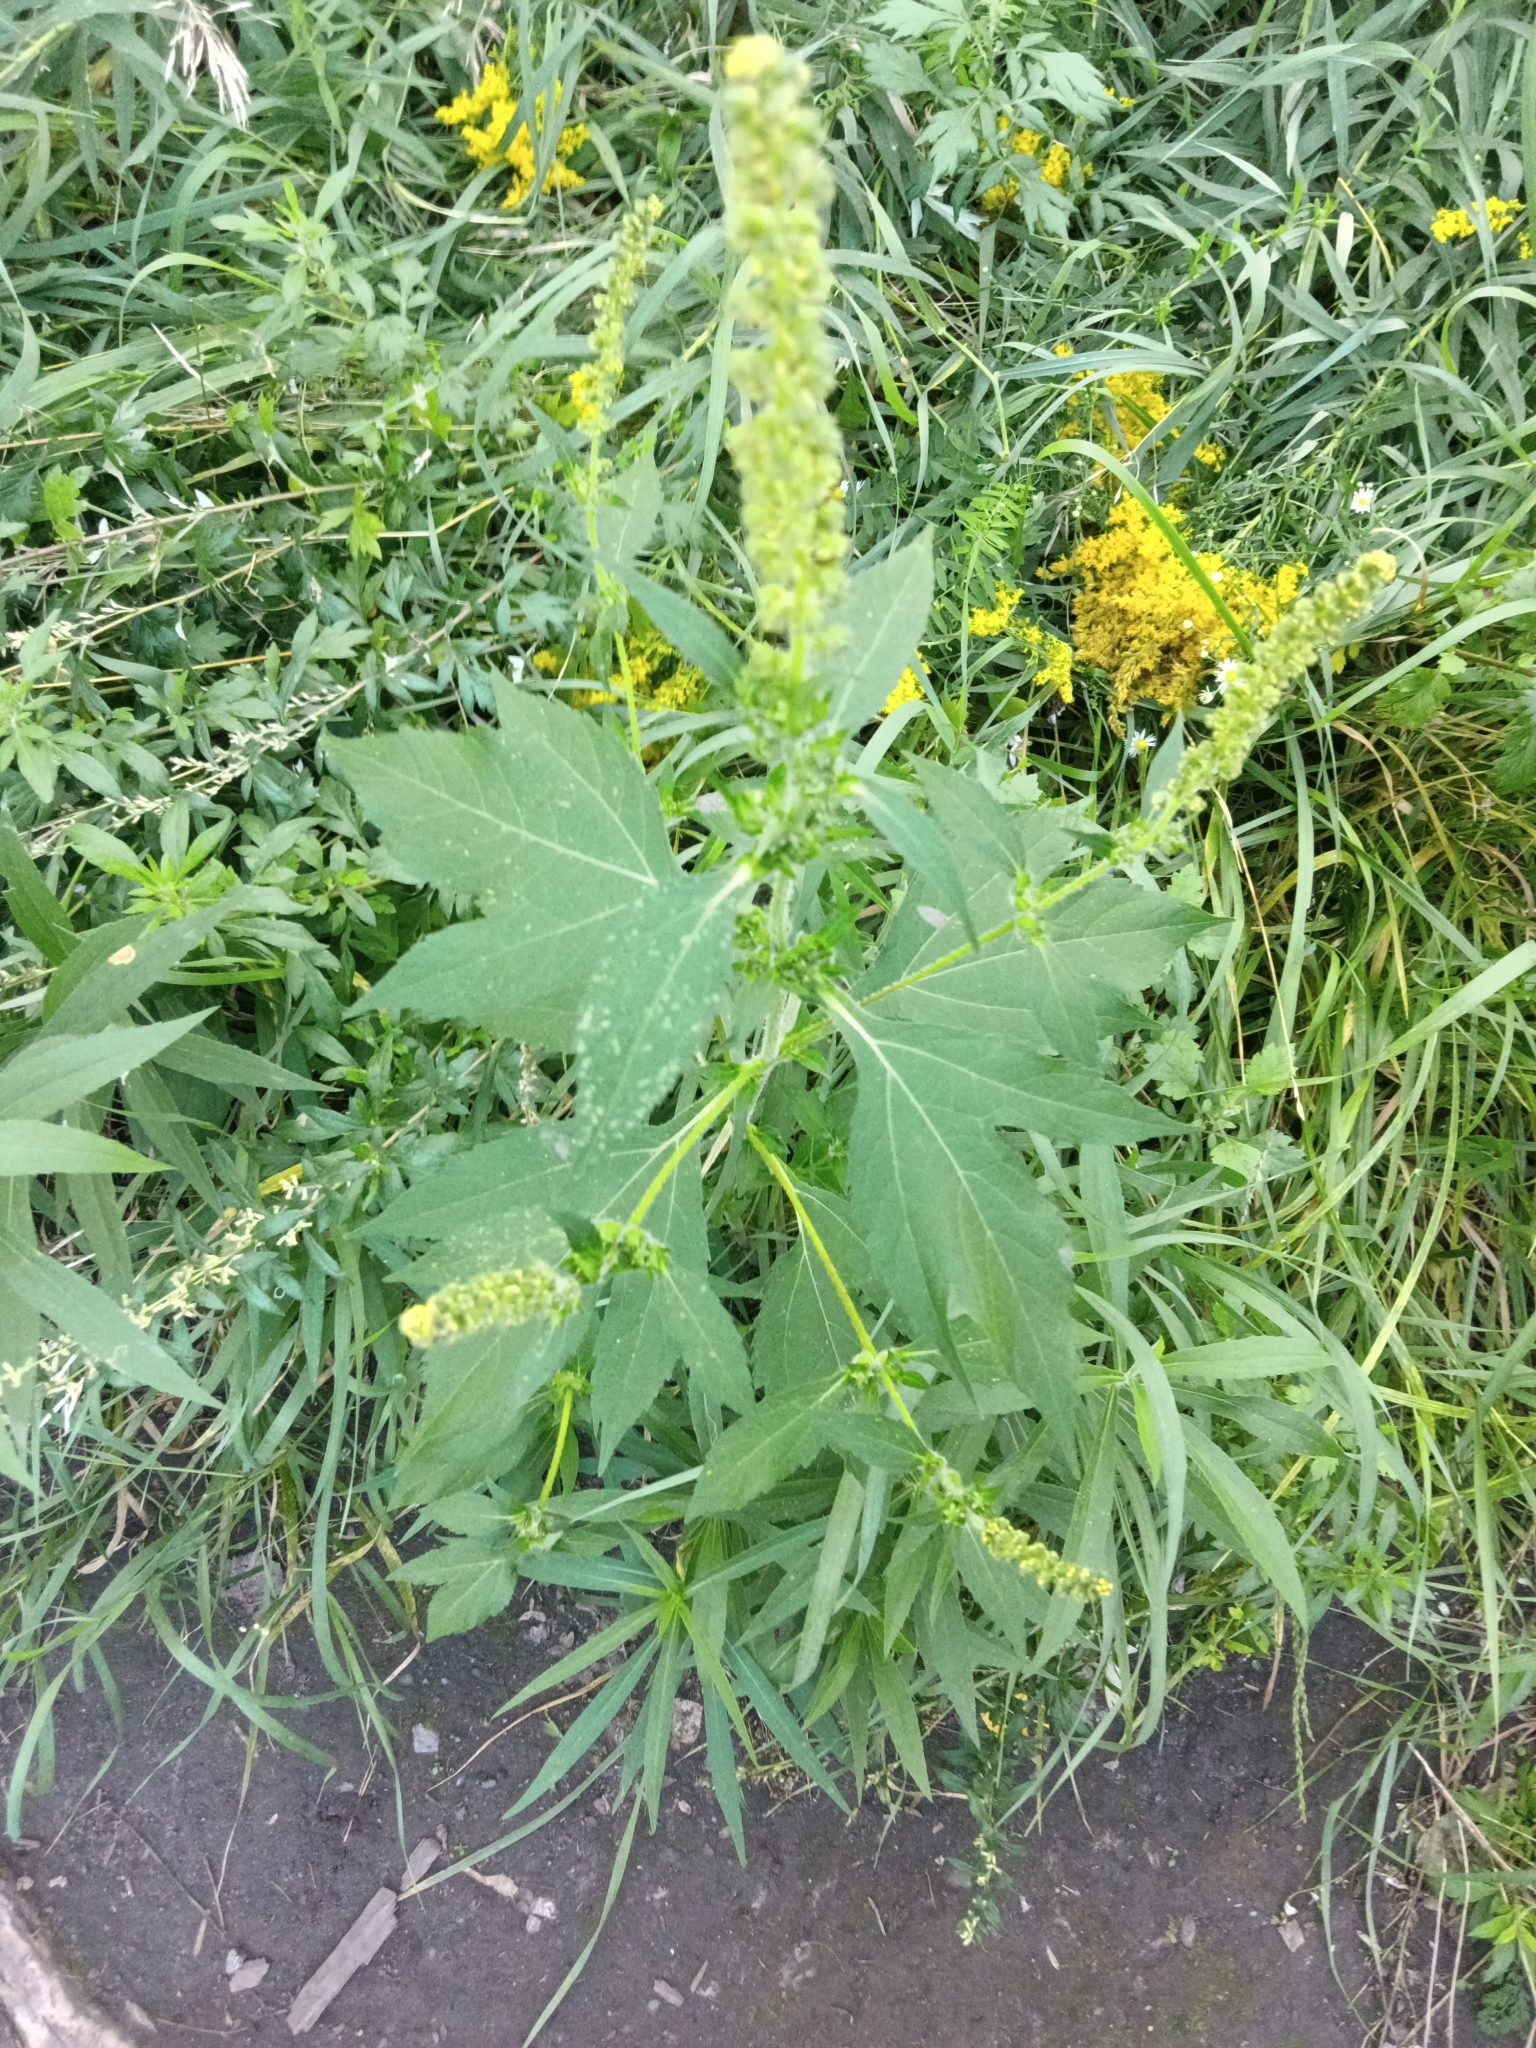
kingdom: Plantae
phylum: Tracheophyta
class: Magnoliopsida
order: Asterales
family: Asteraceae
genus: Ambrosia
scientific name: Ambrosia trifida
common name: Giant ragweed
